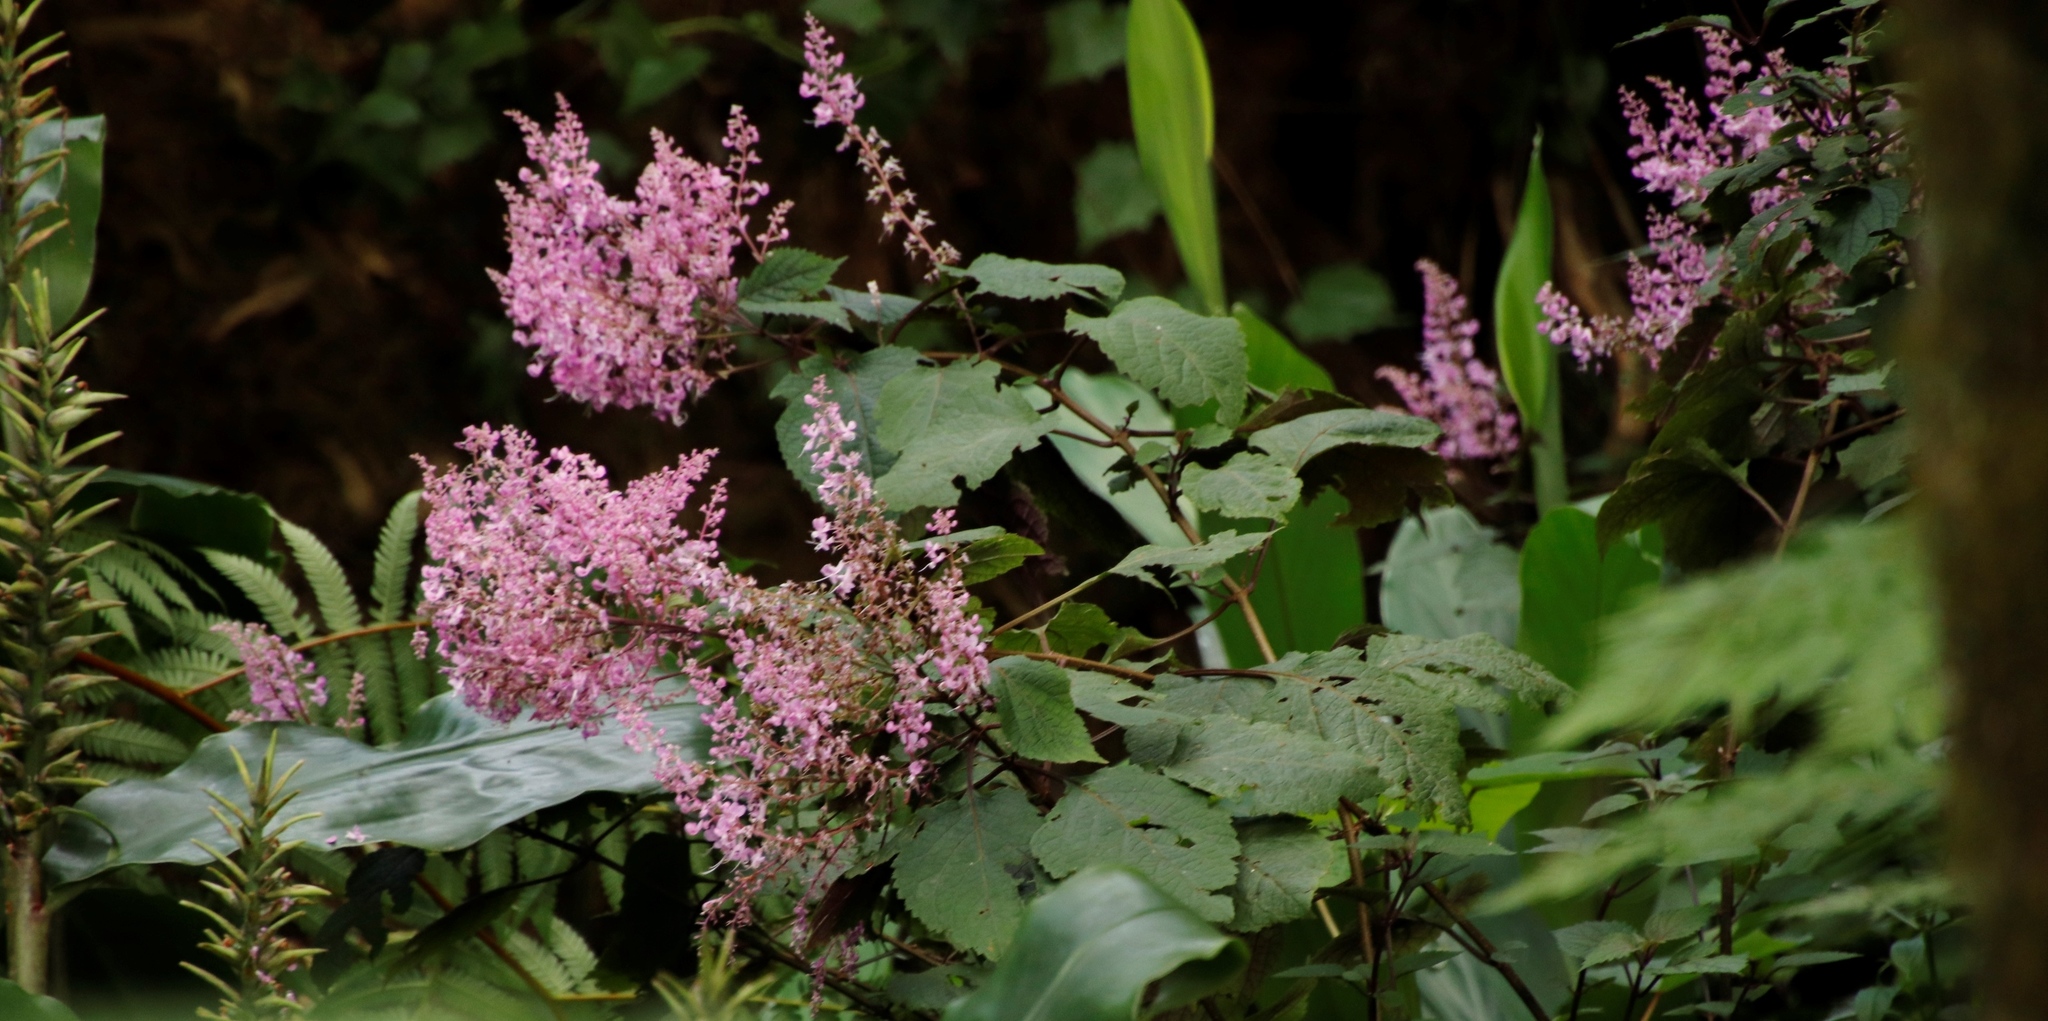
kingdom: Plantae
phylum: Tracheophyta
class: Magnoliopsida
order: Lamiales
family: Lamiaceae
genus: Plectranthus
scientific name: Plectranthus fruticosus
